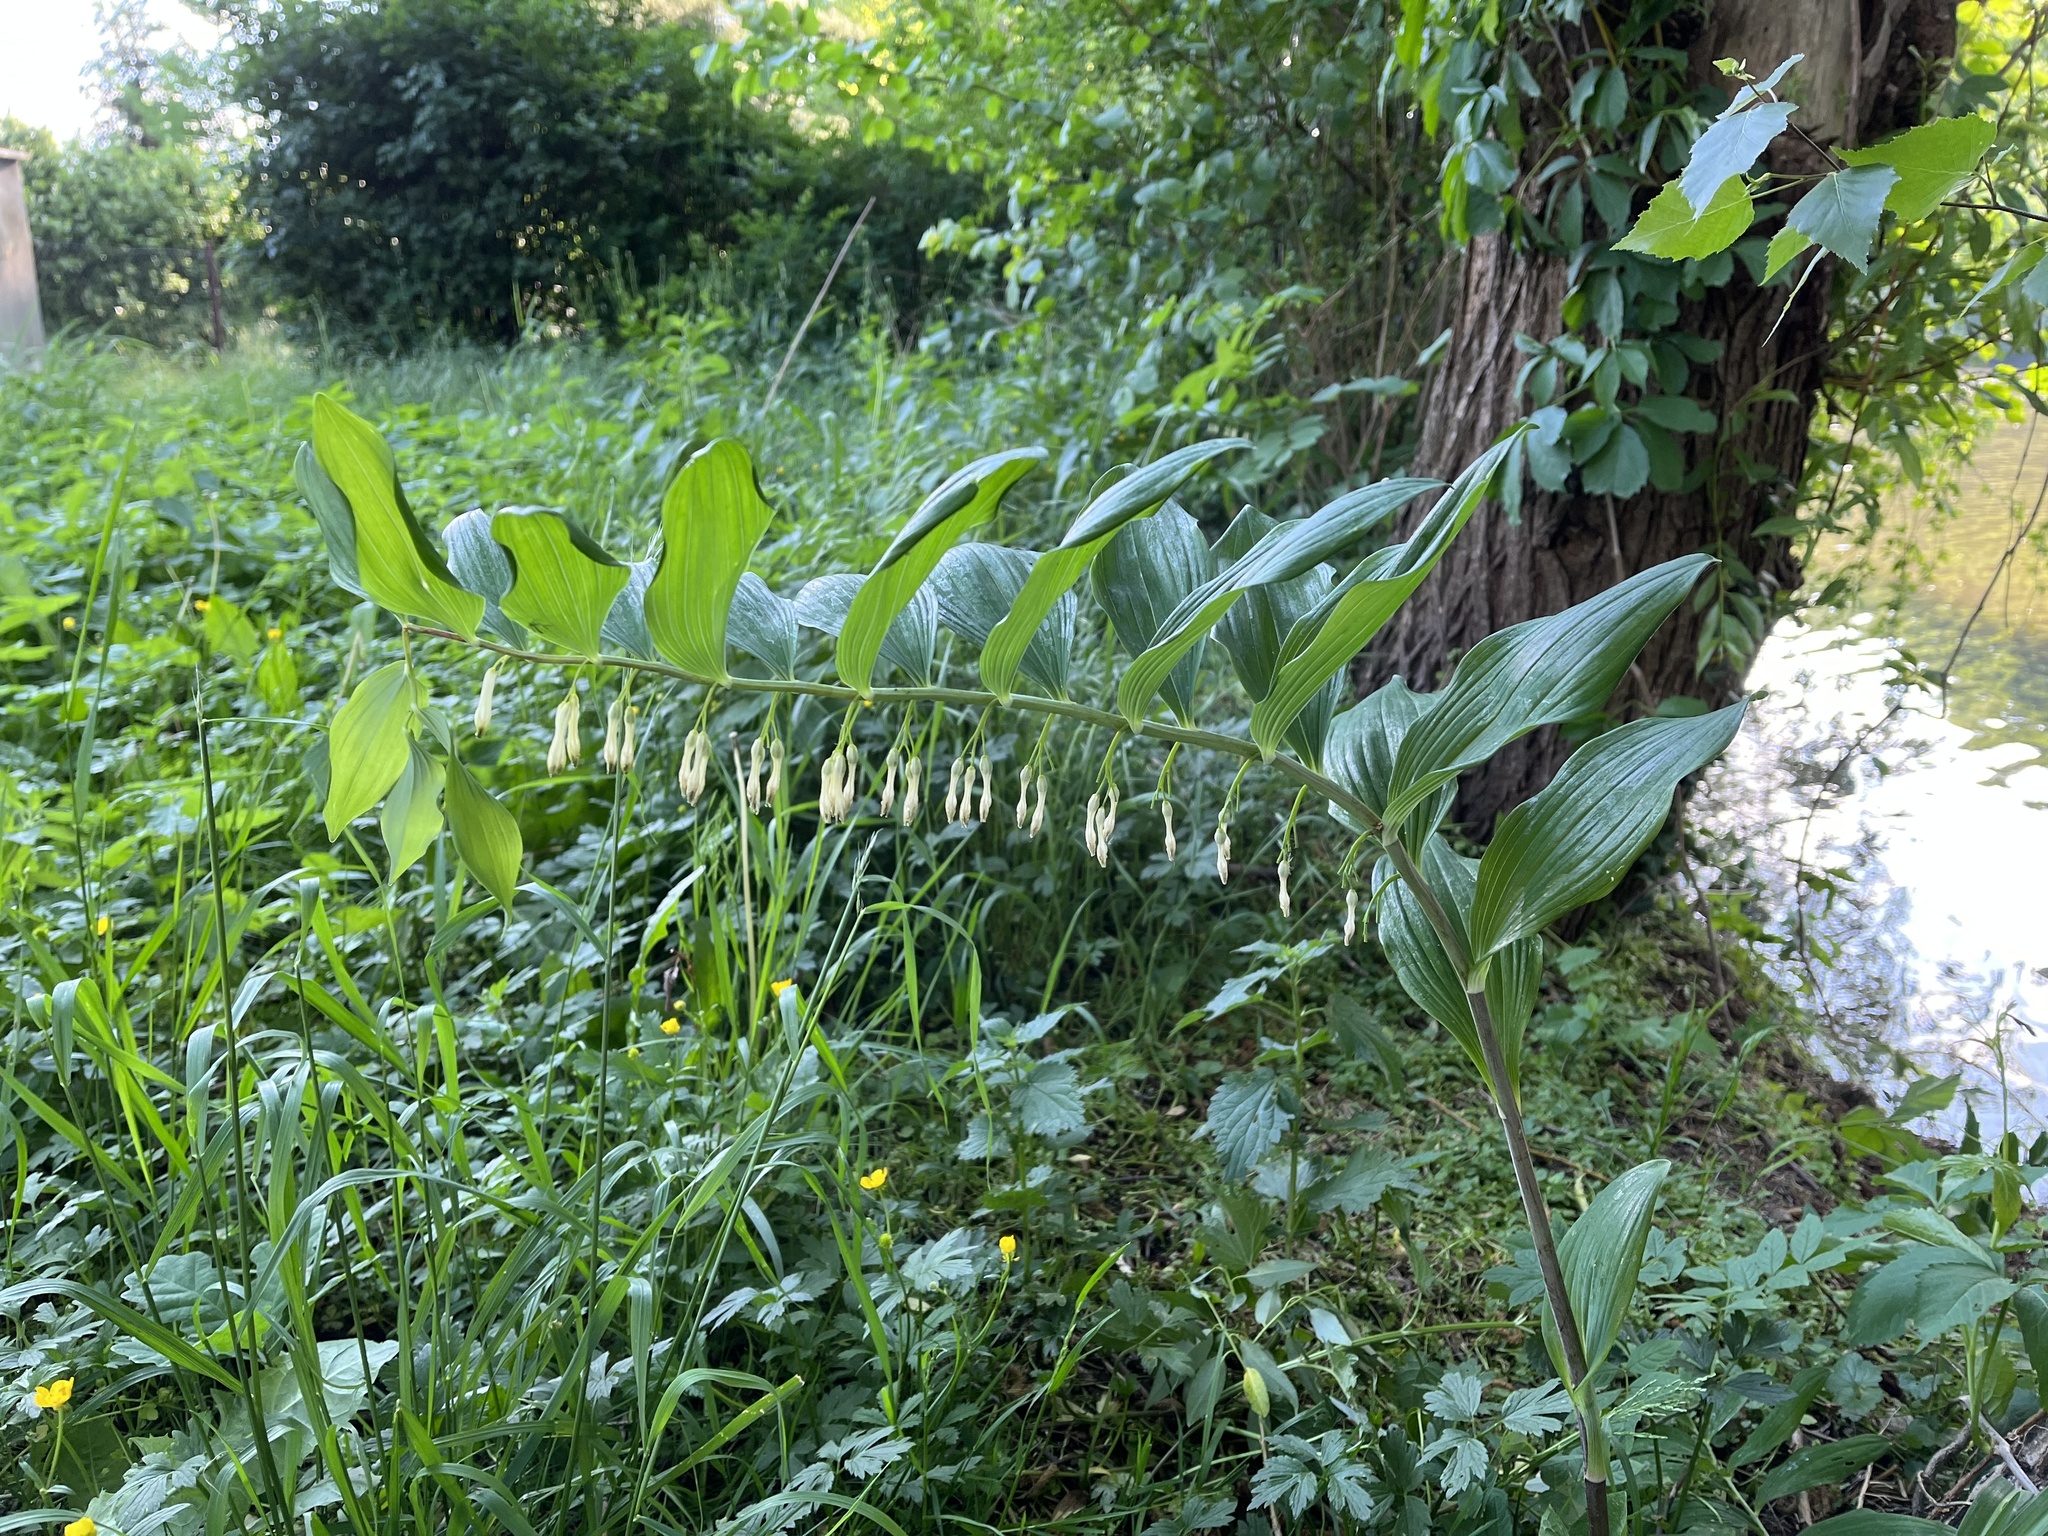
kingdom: Plantae
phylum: Tracheophyta
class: Liliopsida
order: Asparagales
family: Asparagaceae
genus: Polygonatum
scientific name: Polygonatum multiflorum
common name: Solomon's-seal
